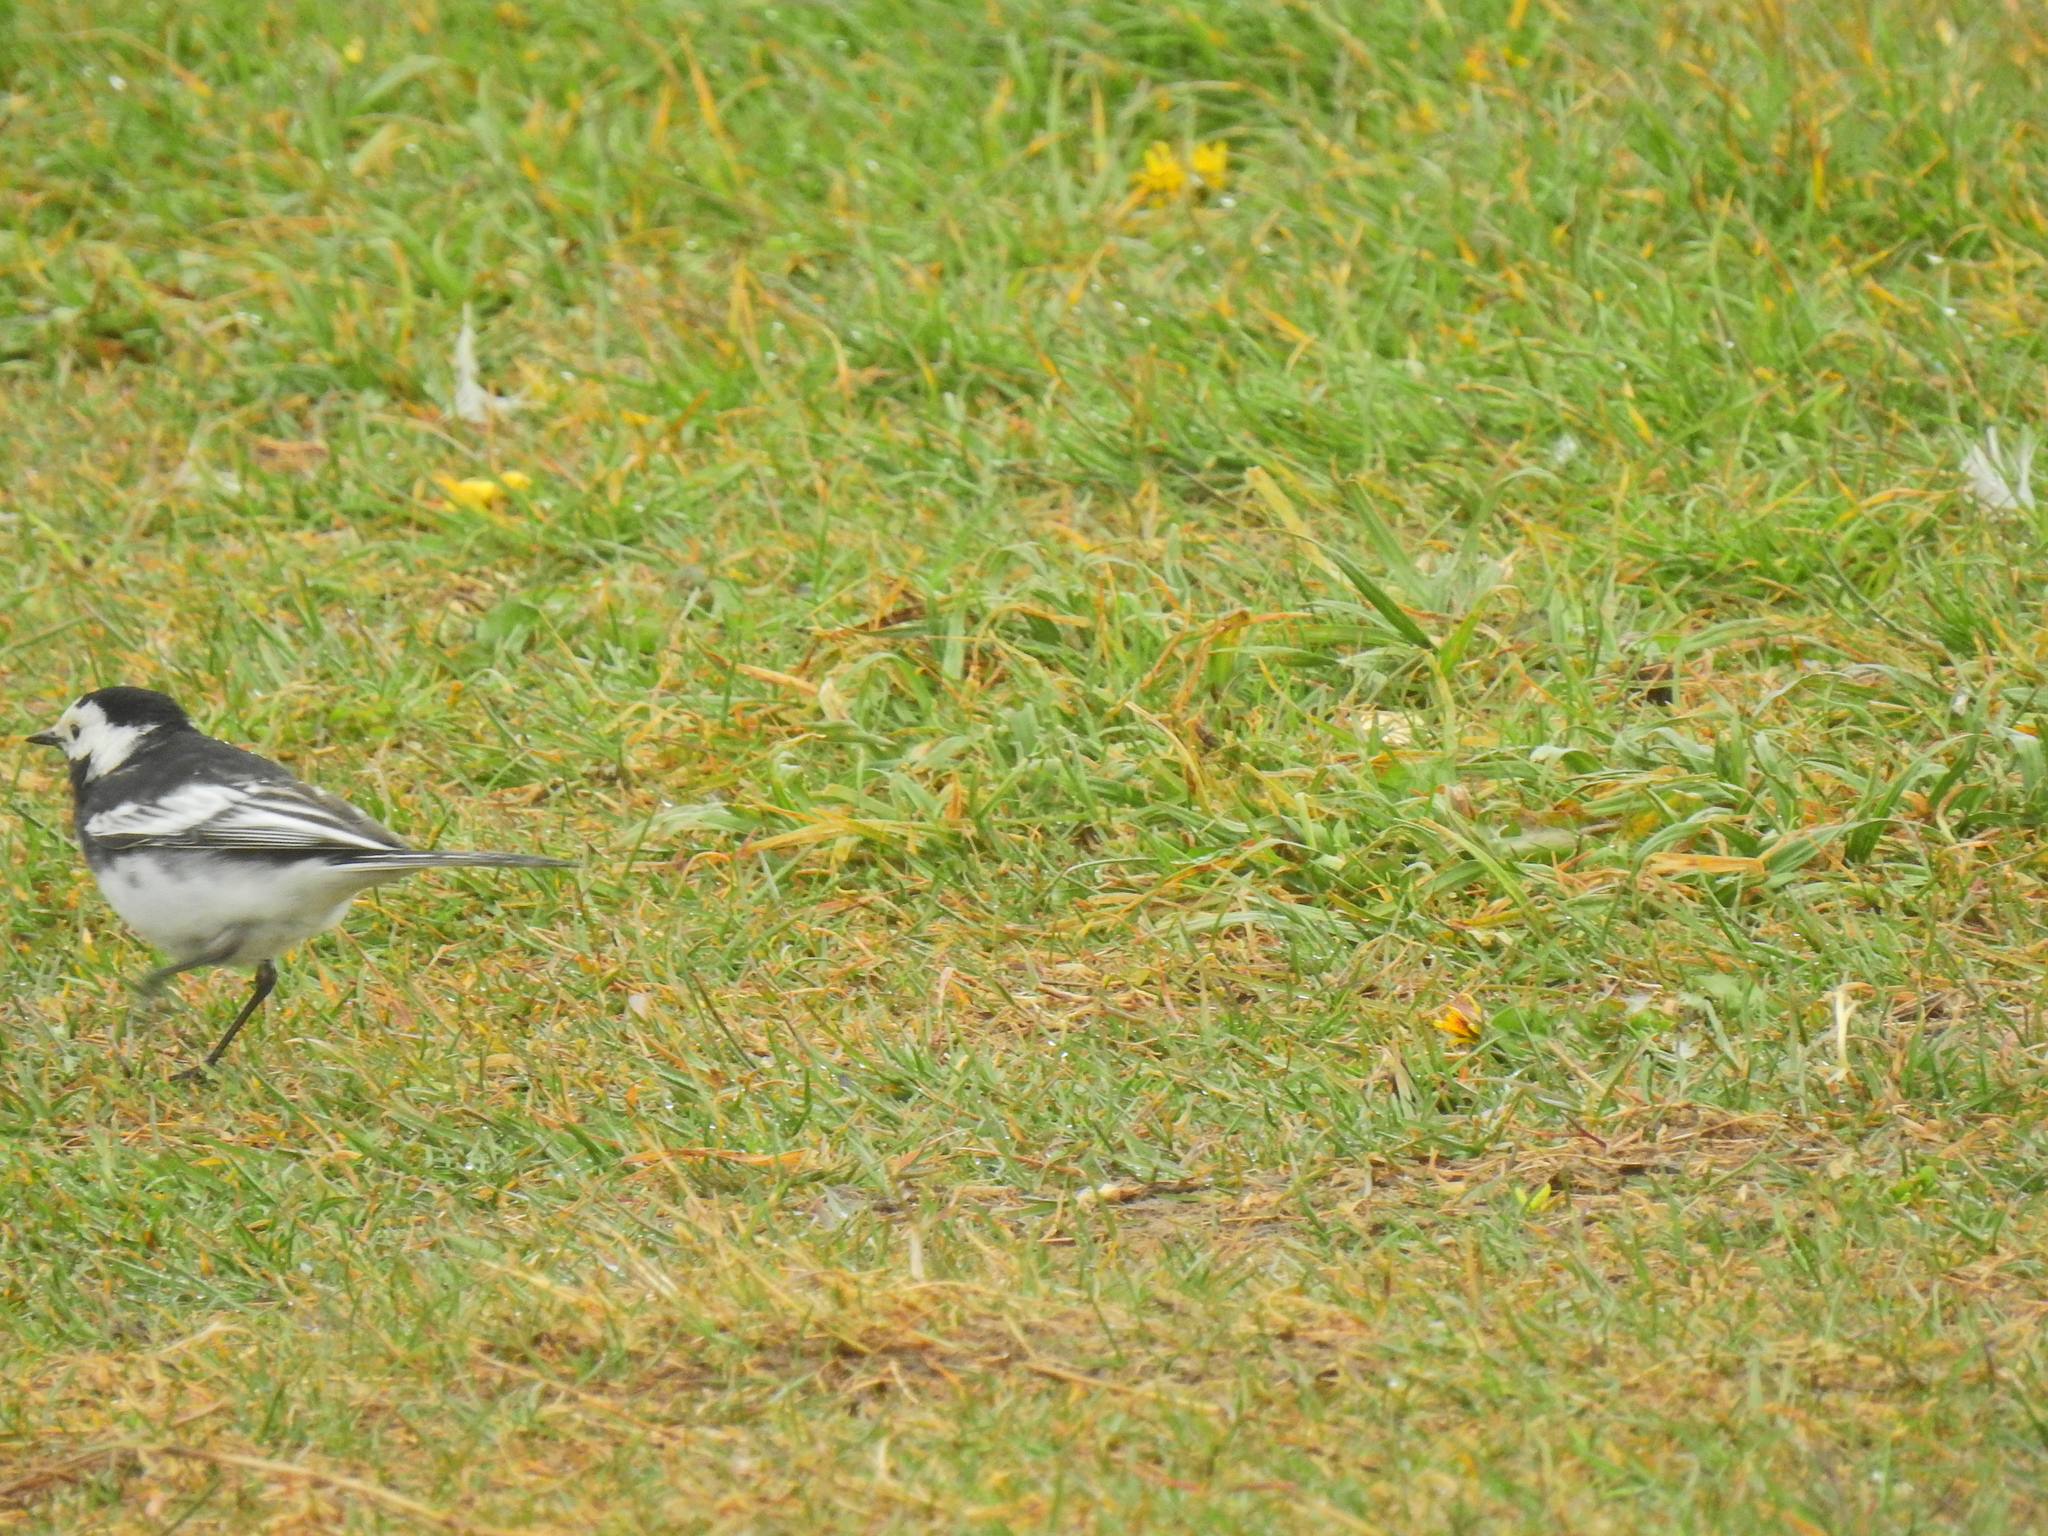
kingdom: Animalia
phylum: Chordata
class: Aves
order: Passeriformes
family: Motacillidae
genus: Motacilla
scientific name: Motacilla alba
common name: White wagtail
